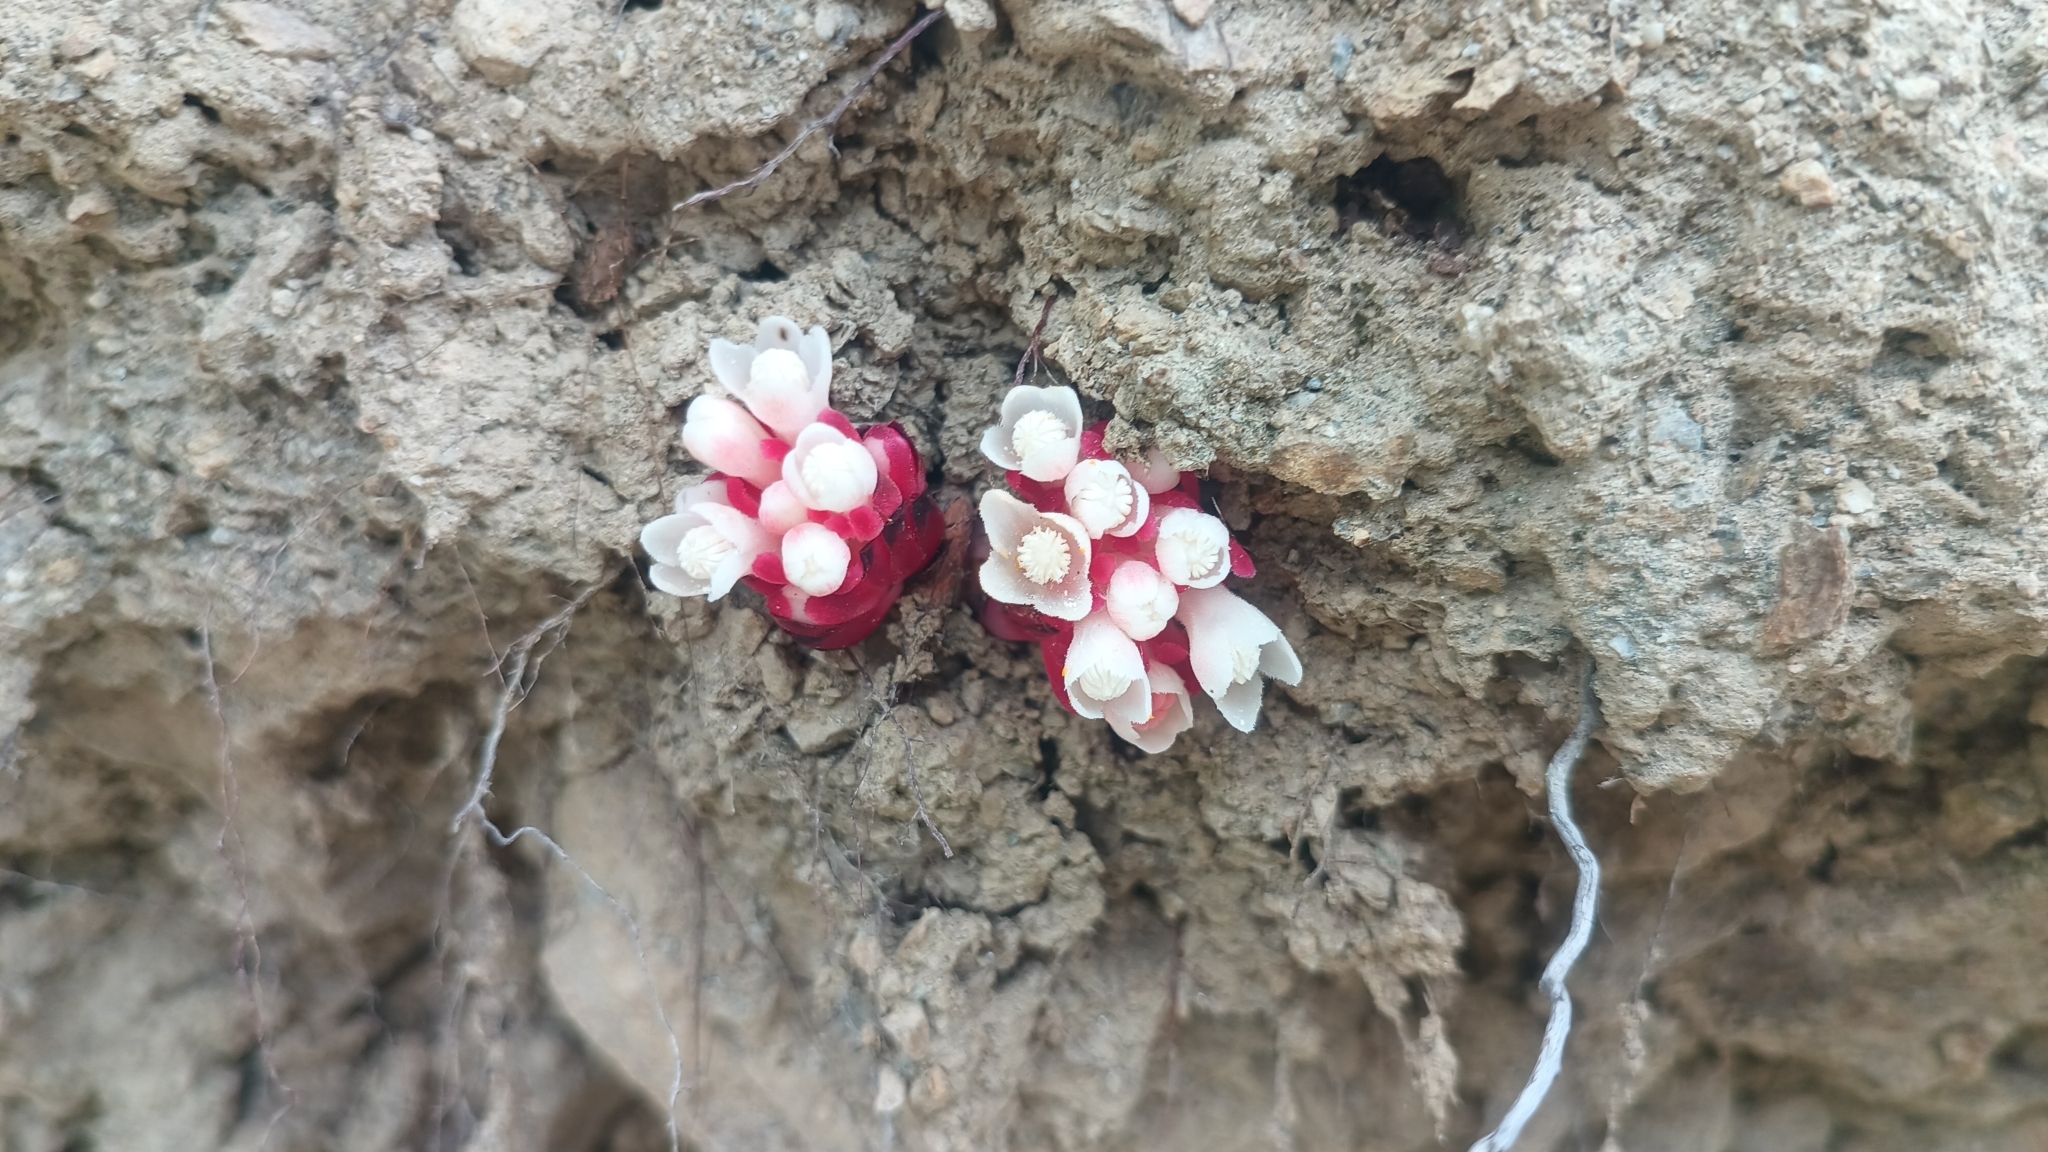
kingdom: Plantae
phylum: Tracheophyta
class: Magnoliopsida
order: Malvales
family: Cytinaceae
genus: Cytinus
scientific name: Cytinus ruber
